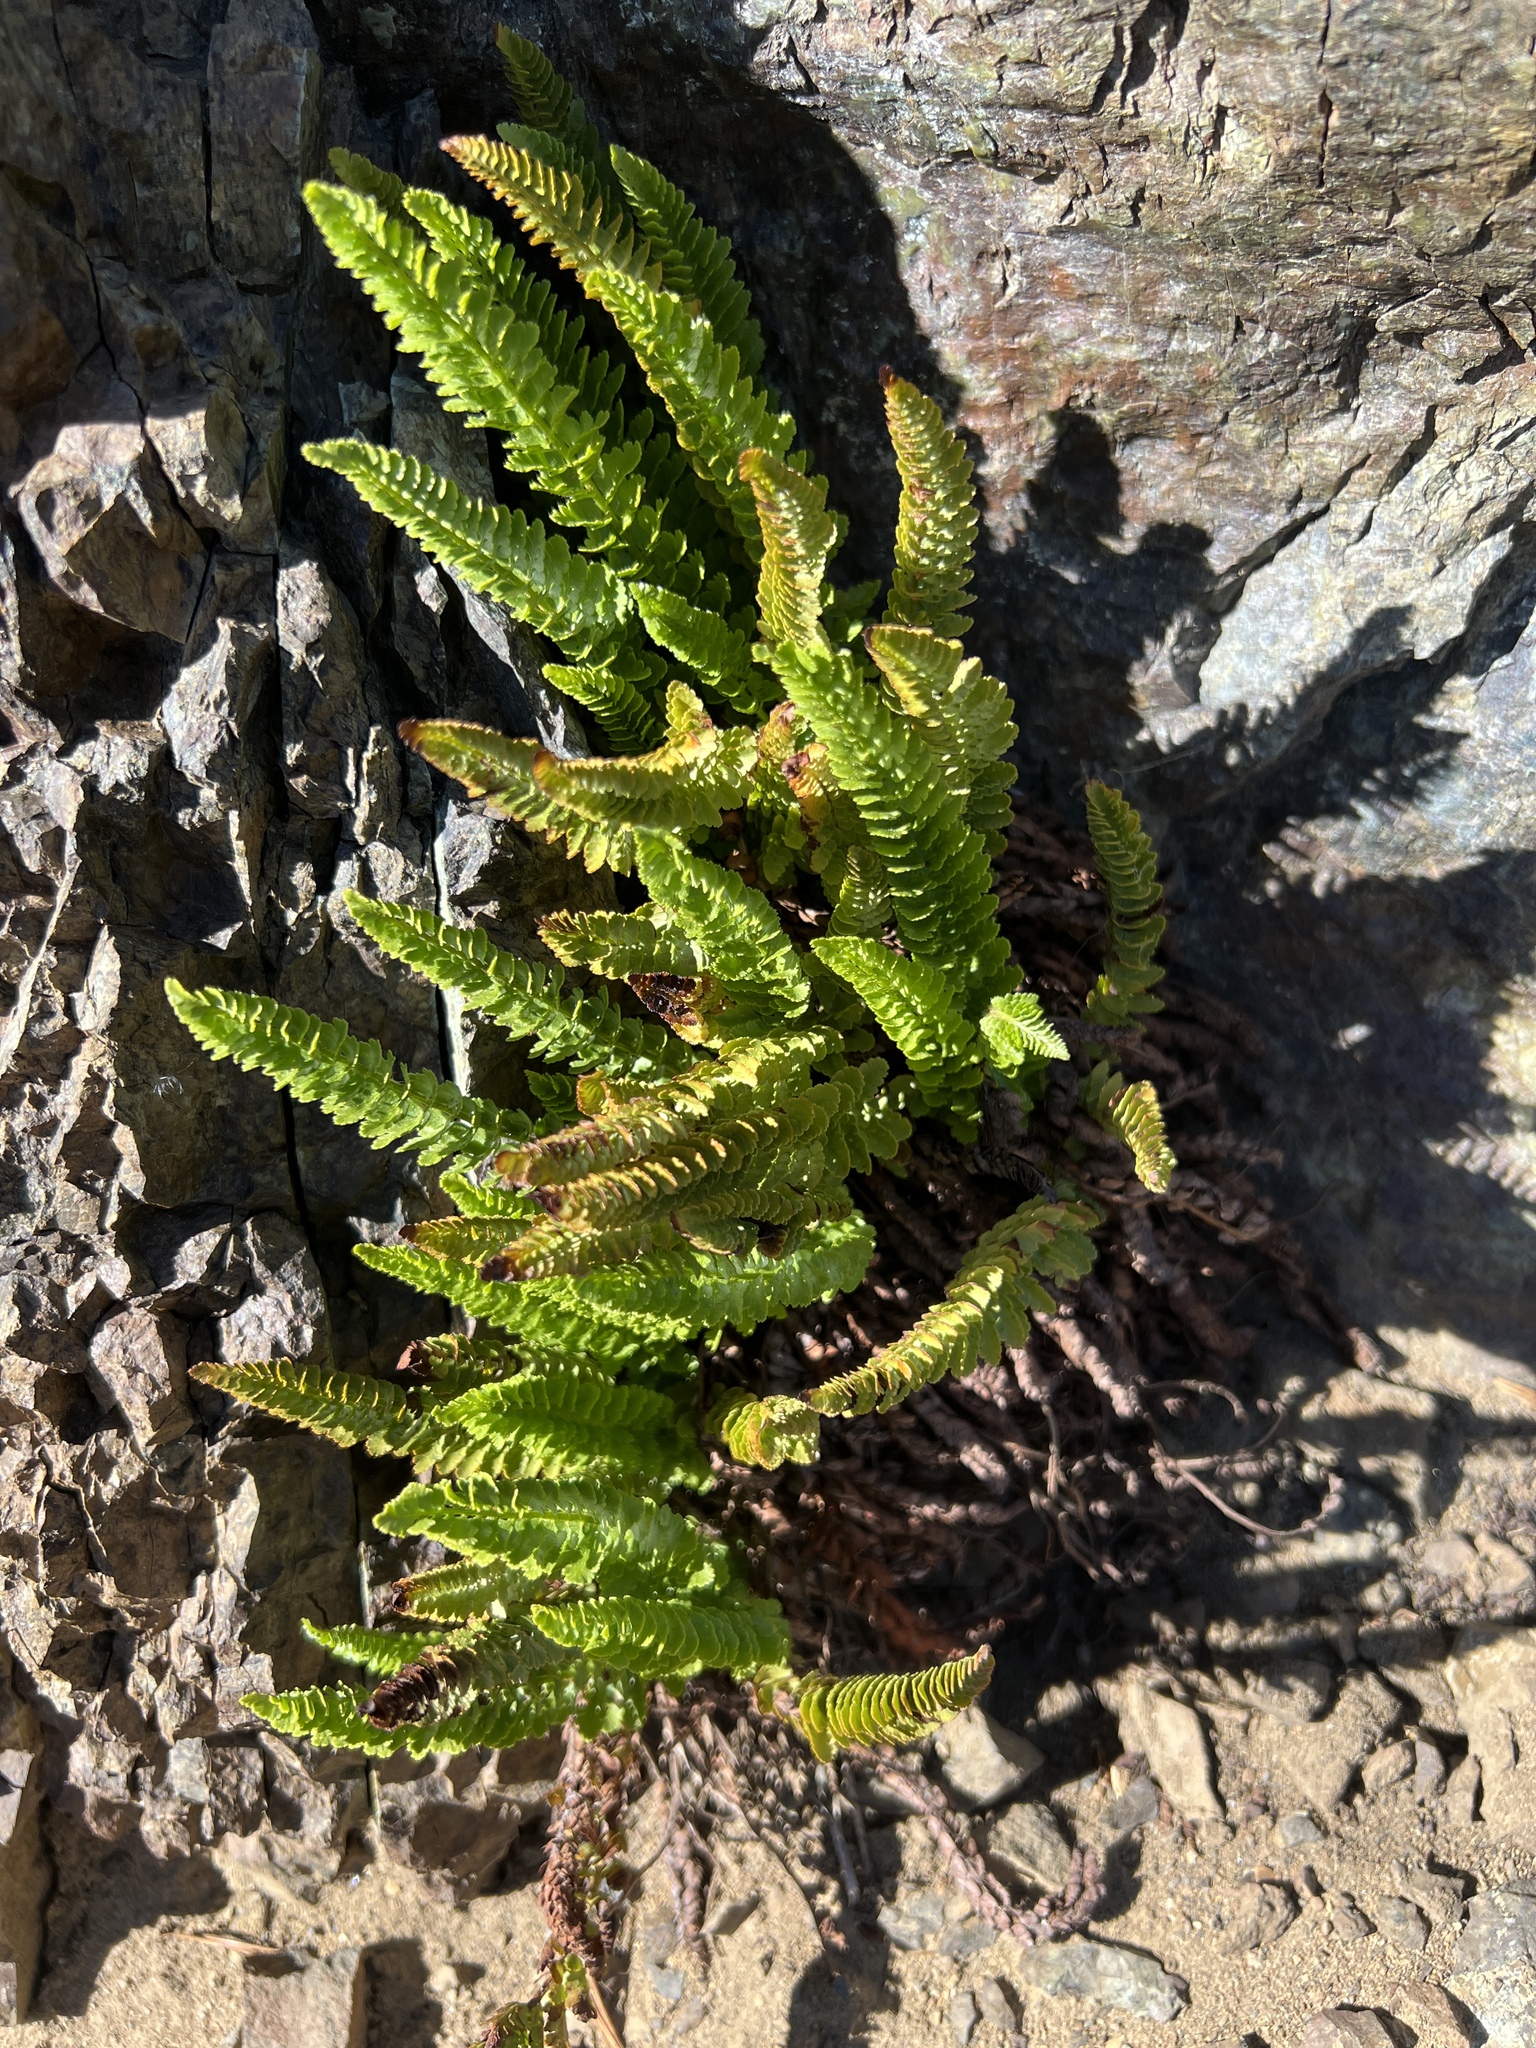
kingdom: Plantae
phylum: Tracheophyta
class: Polypodiopsida
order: Polypodiales
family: Dryopteridaceae
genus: Polystichum
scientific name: Polystichum lemmonii
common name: Lemmon's holly fern
